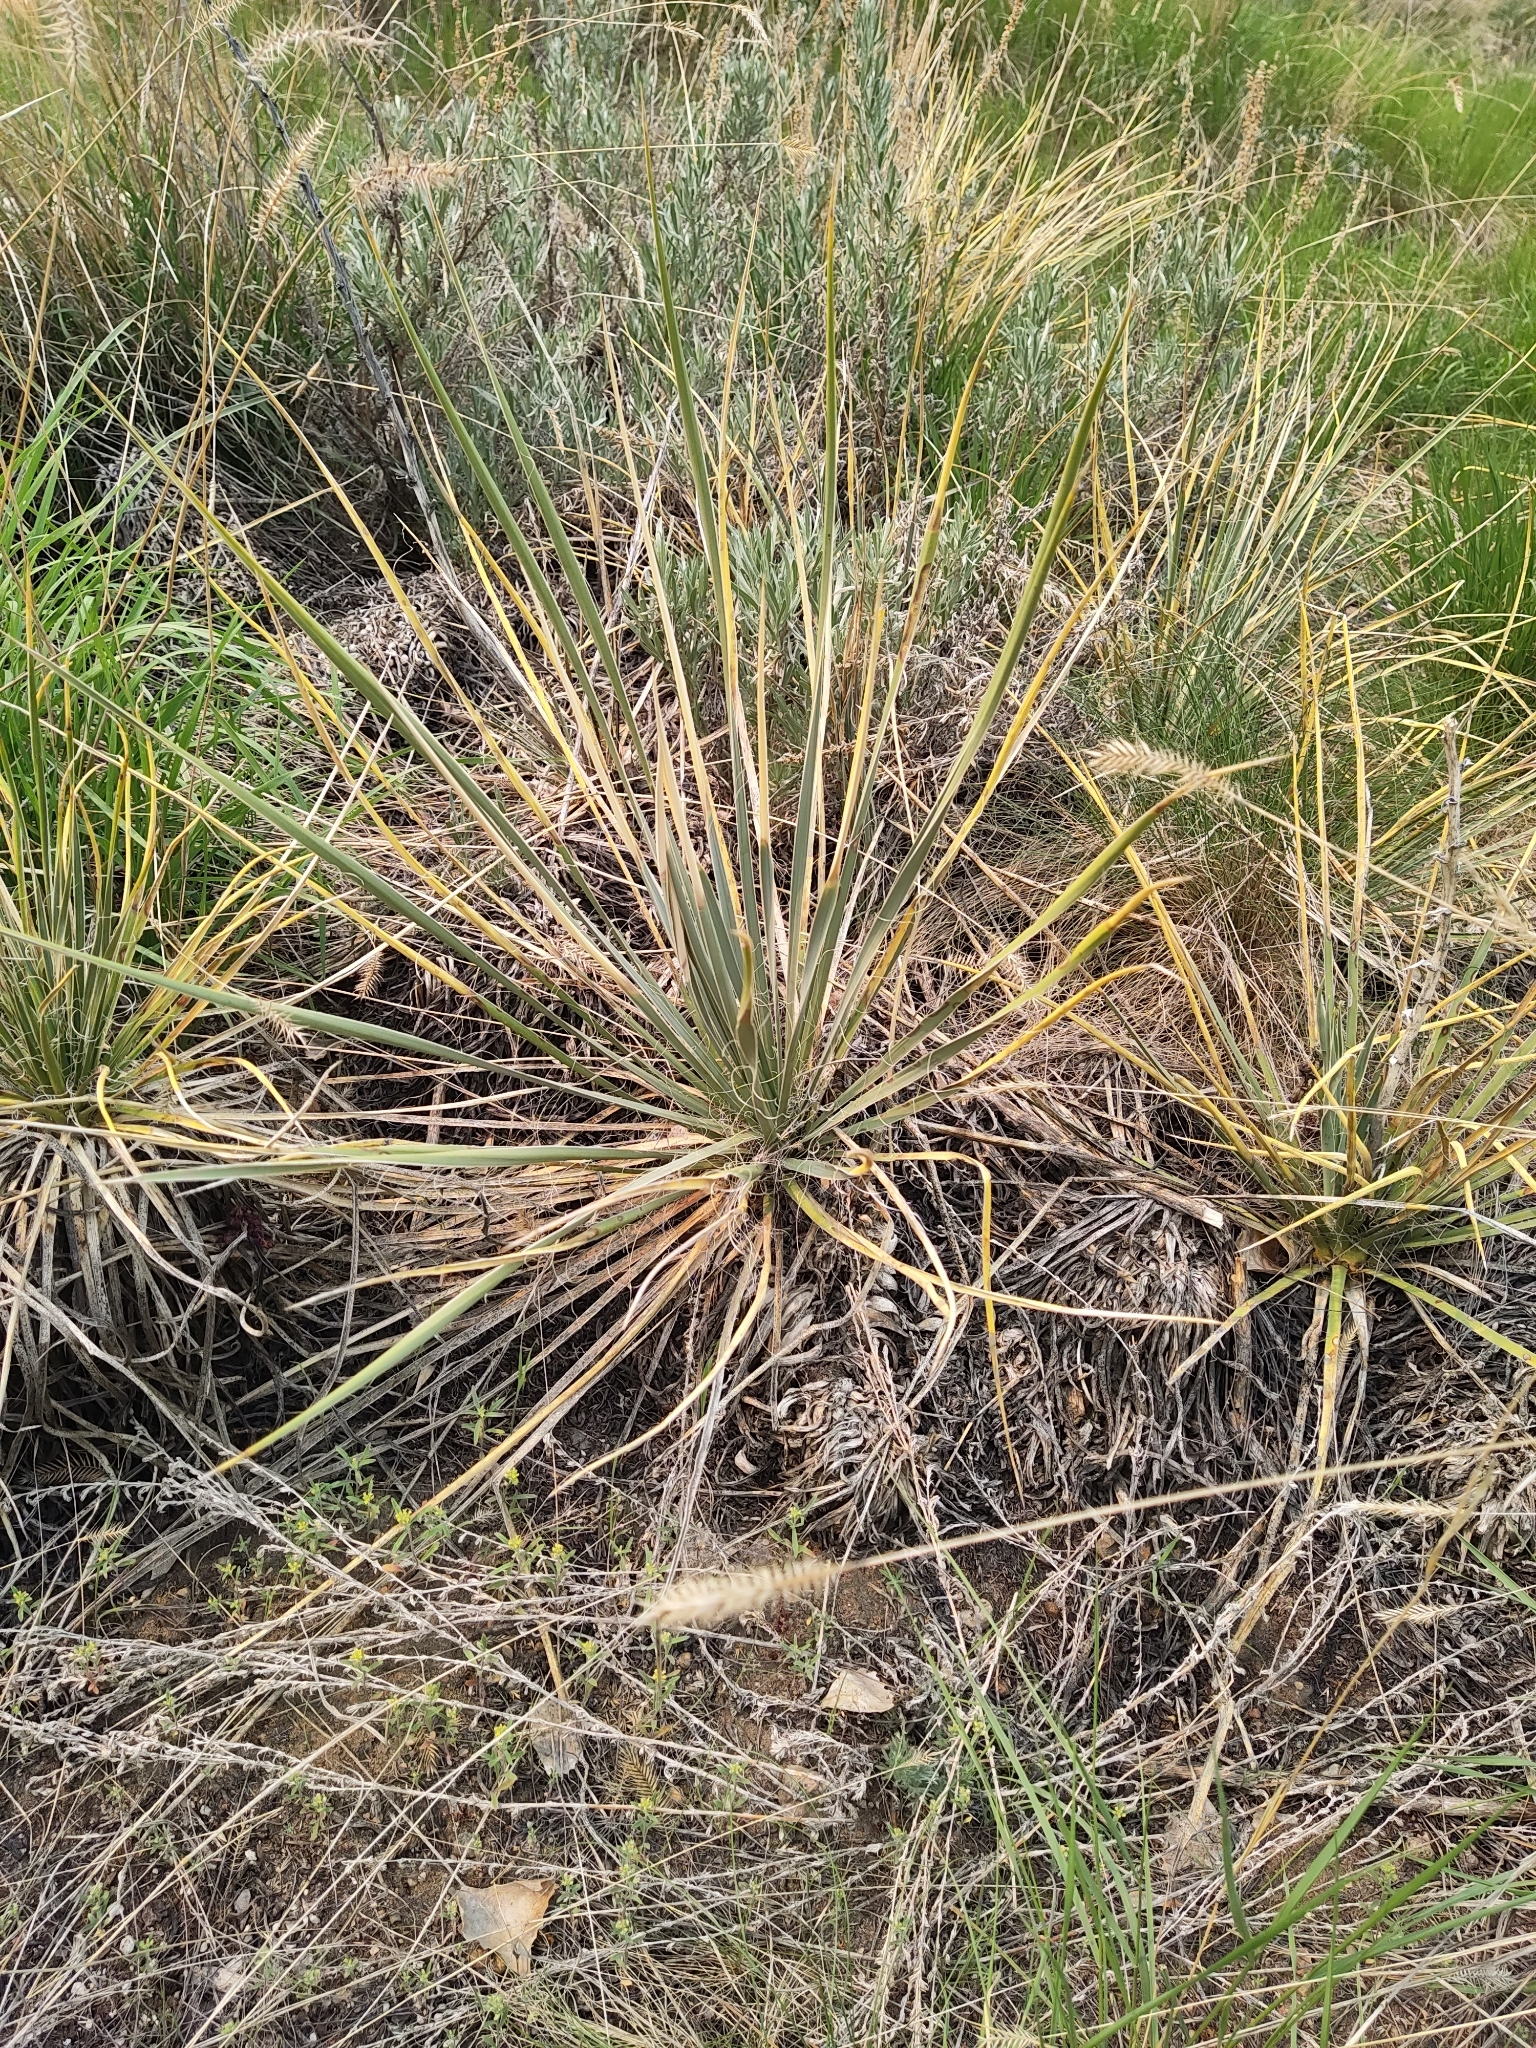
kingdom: Plantae
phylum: Tracheophyta
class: Liliopsida
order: Asparagales
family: Asparagaceae
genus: Yucca
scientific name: Yucca glauca
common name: Great plains yucca
